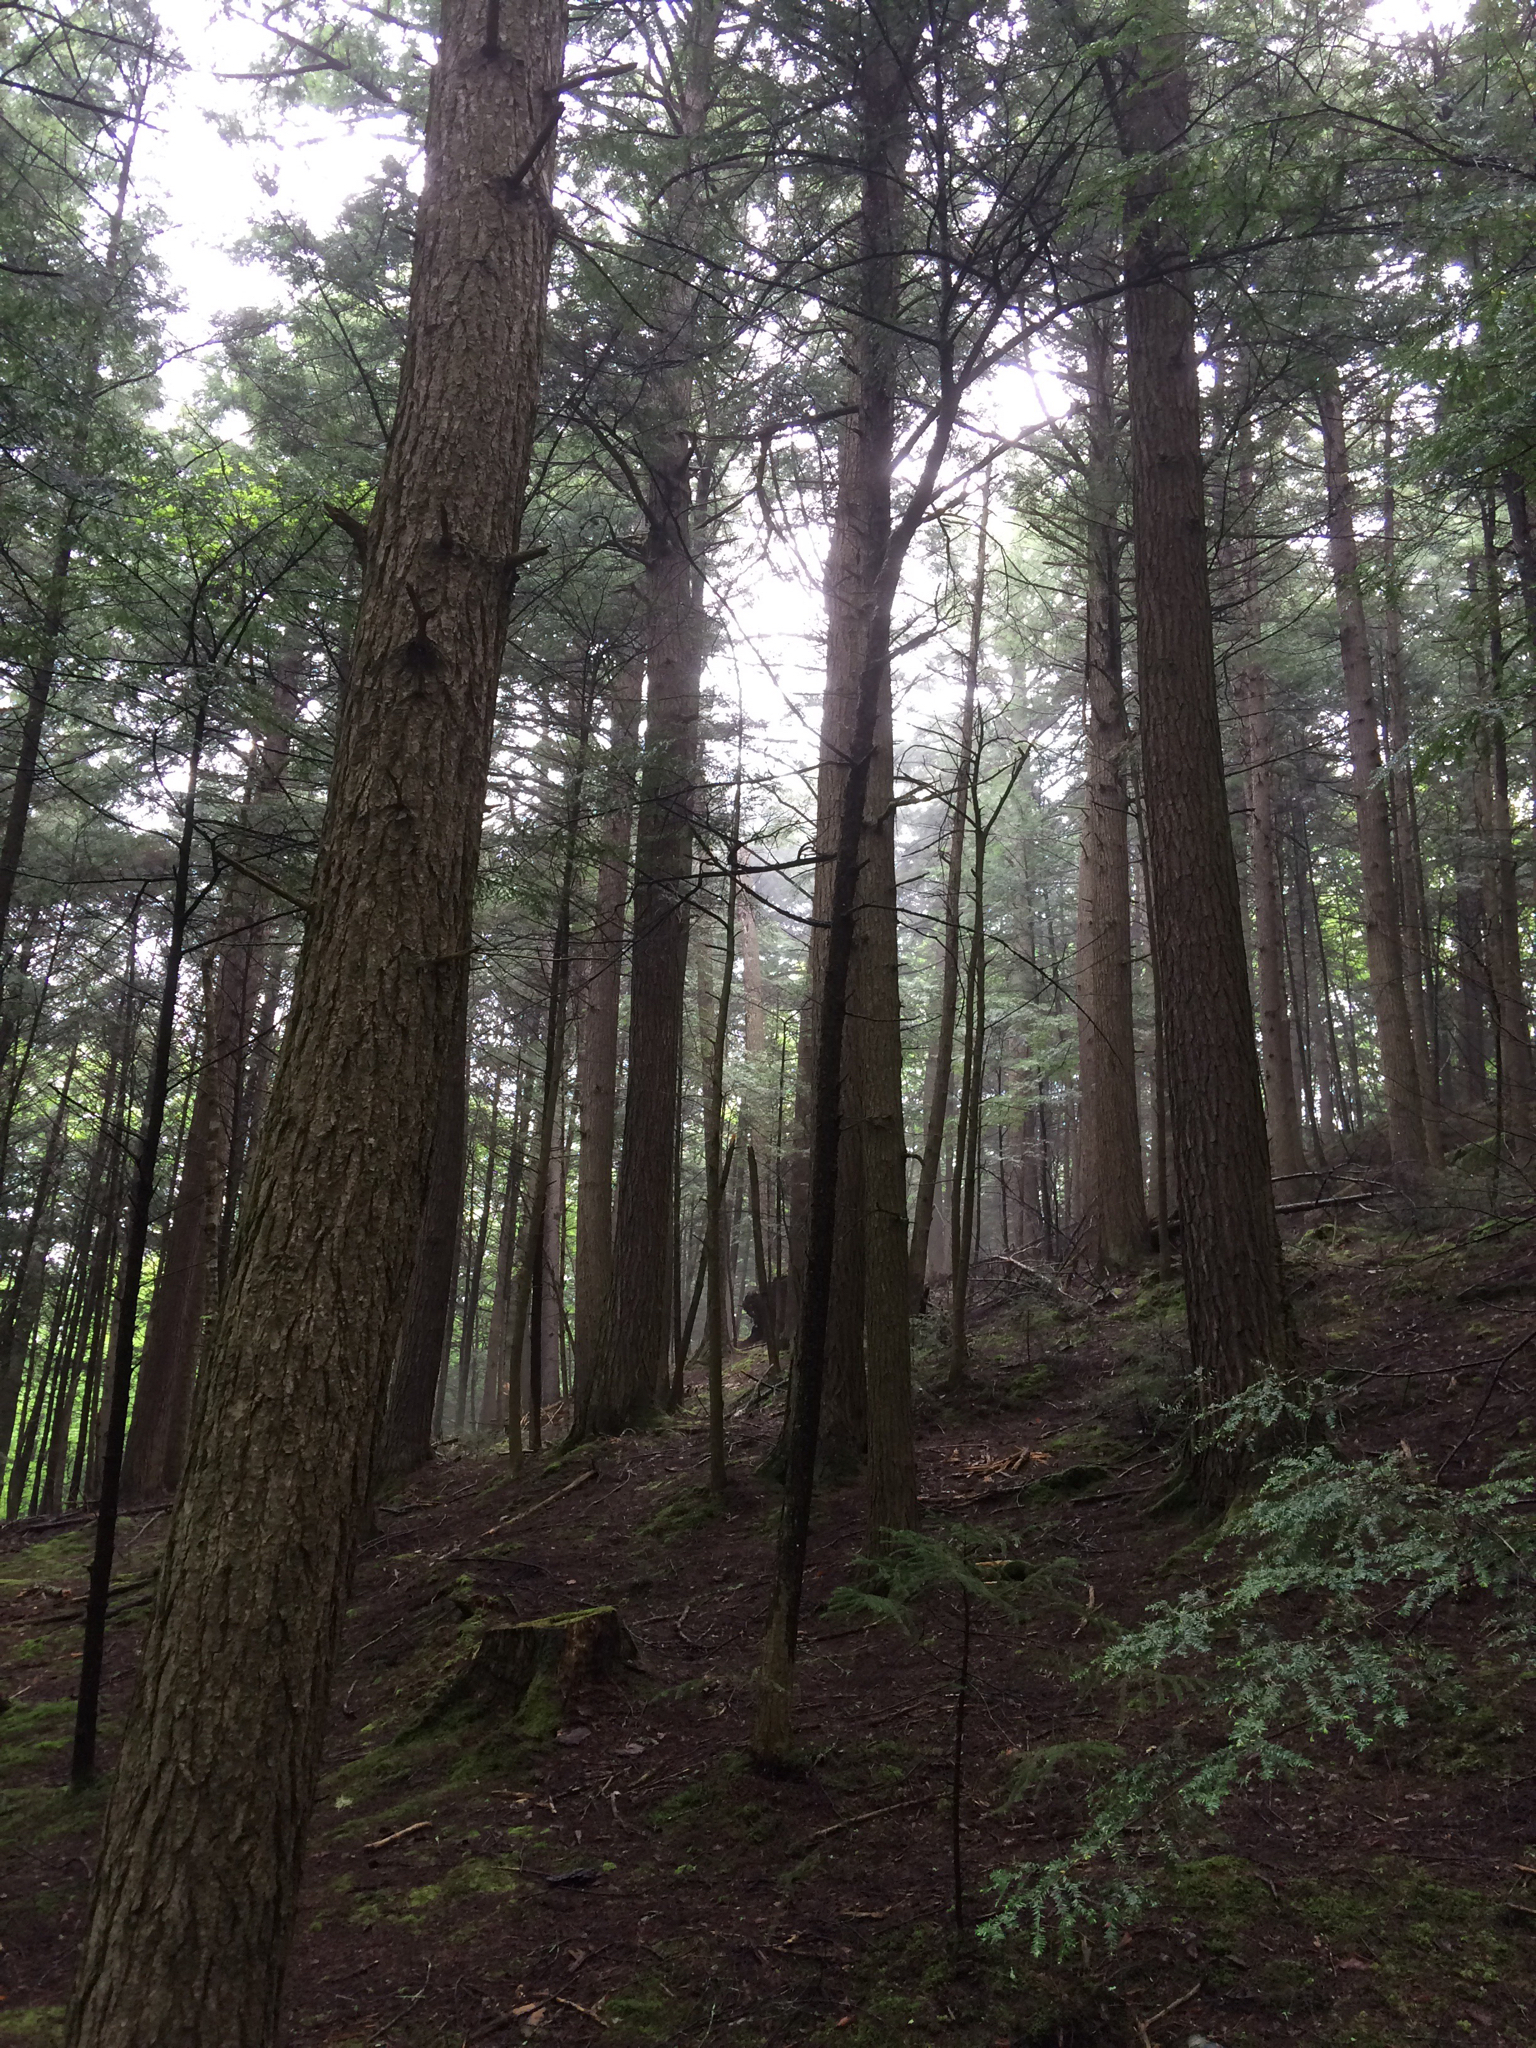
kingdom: Plantae
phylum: Tracheophyta
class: Pinopsida
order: Pinales
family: Pinaceae
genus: Tsuga
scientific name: Tsuga canadensis
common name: Eastern hemlock
